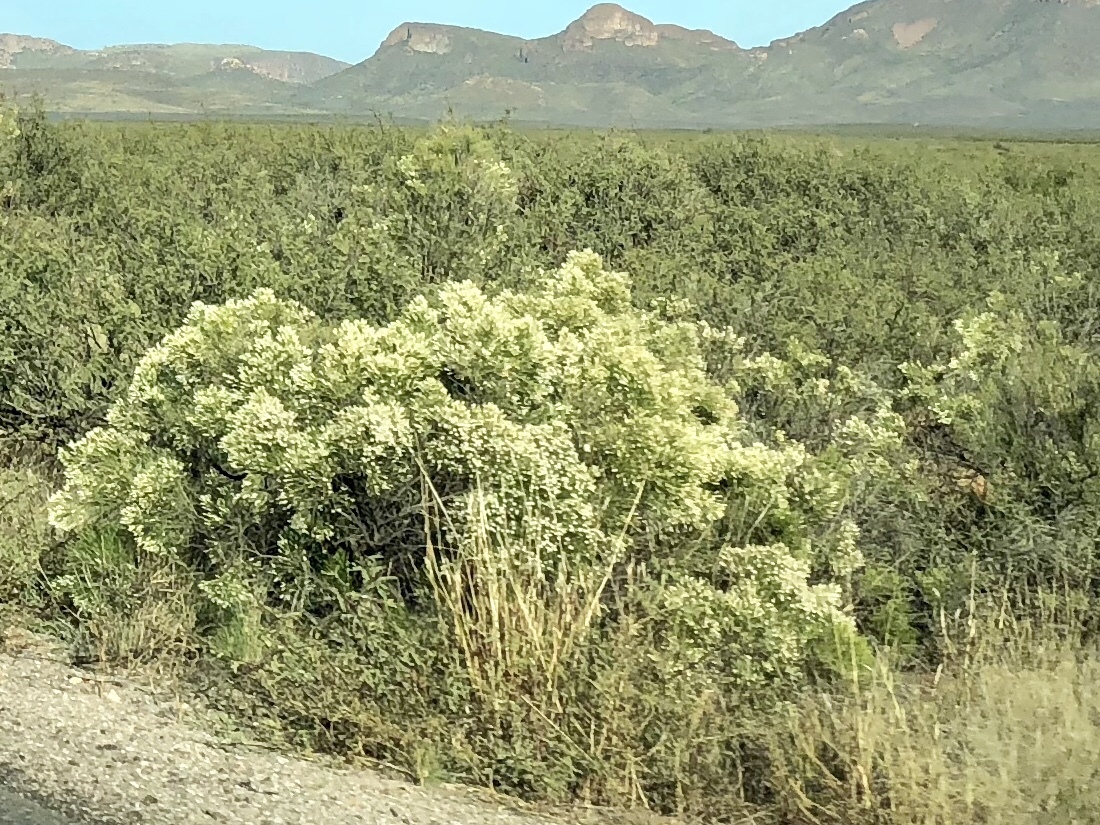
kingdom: Plantae
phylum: Tracheophyta
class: Magnoliopsida
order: Asterales
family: Asteraceae
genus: Baccharis
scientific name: Baccharis sarothroides
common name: Desert-broom
